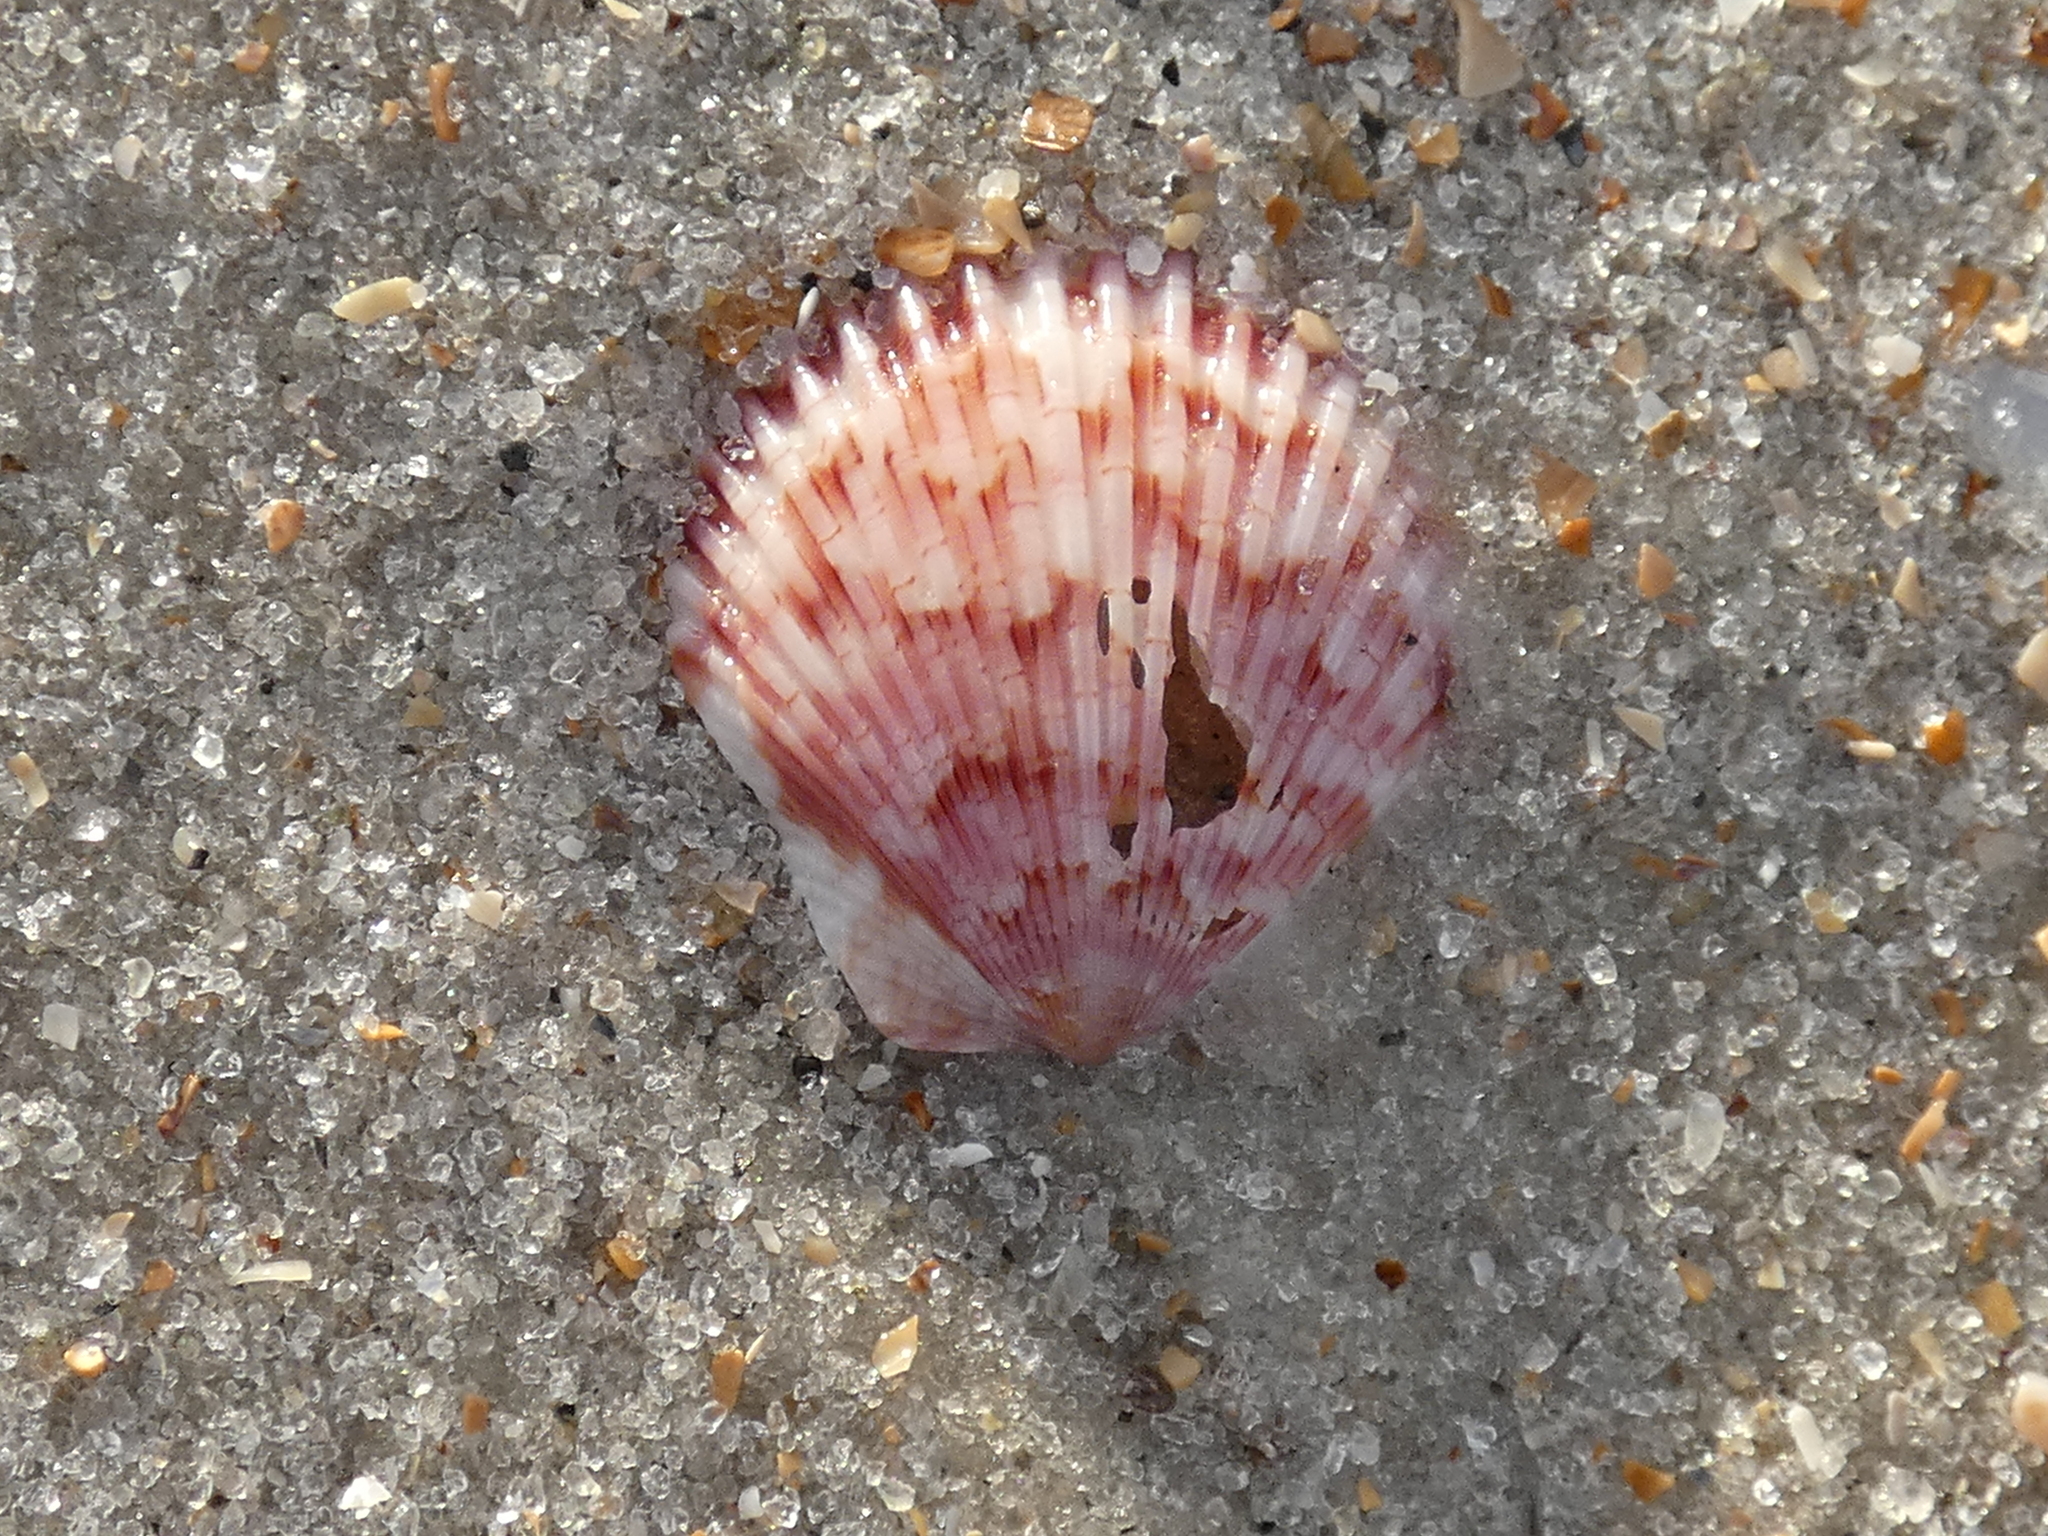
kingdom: Animalia
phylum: Mollusca
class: Bivalvia
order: Pectinida
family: Pectinidae
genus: Argopecten
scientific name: Argopecten gibbus
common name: Atlantic calico scallop
